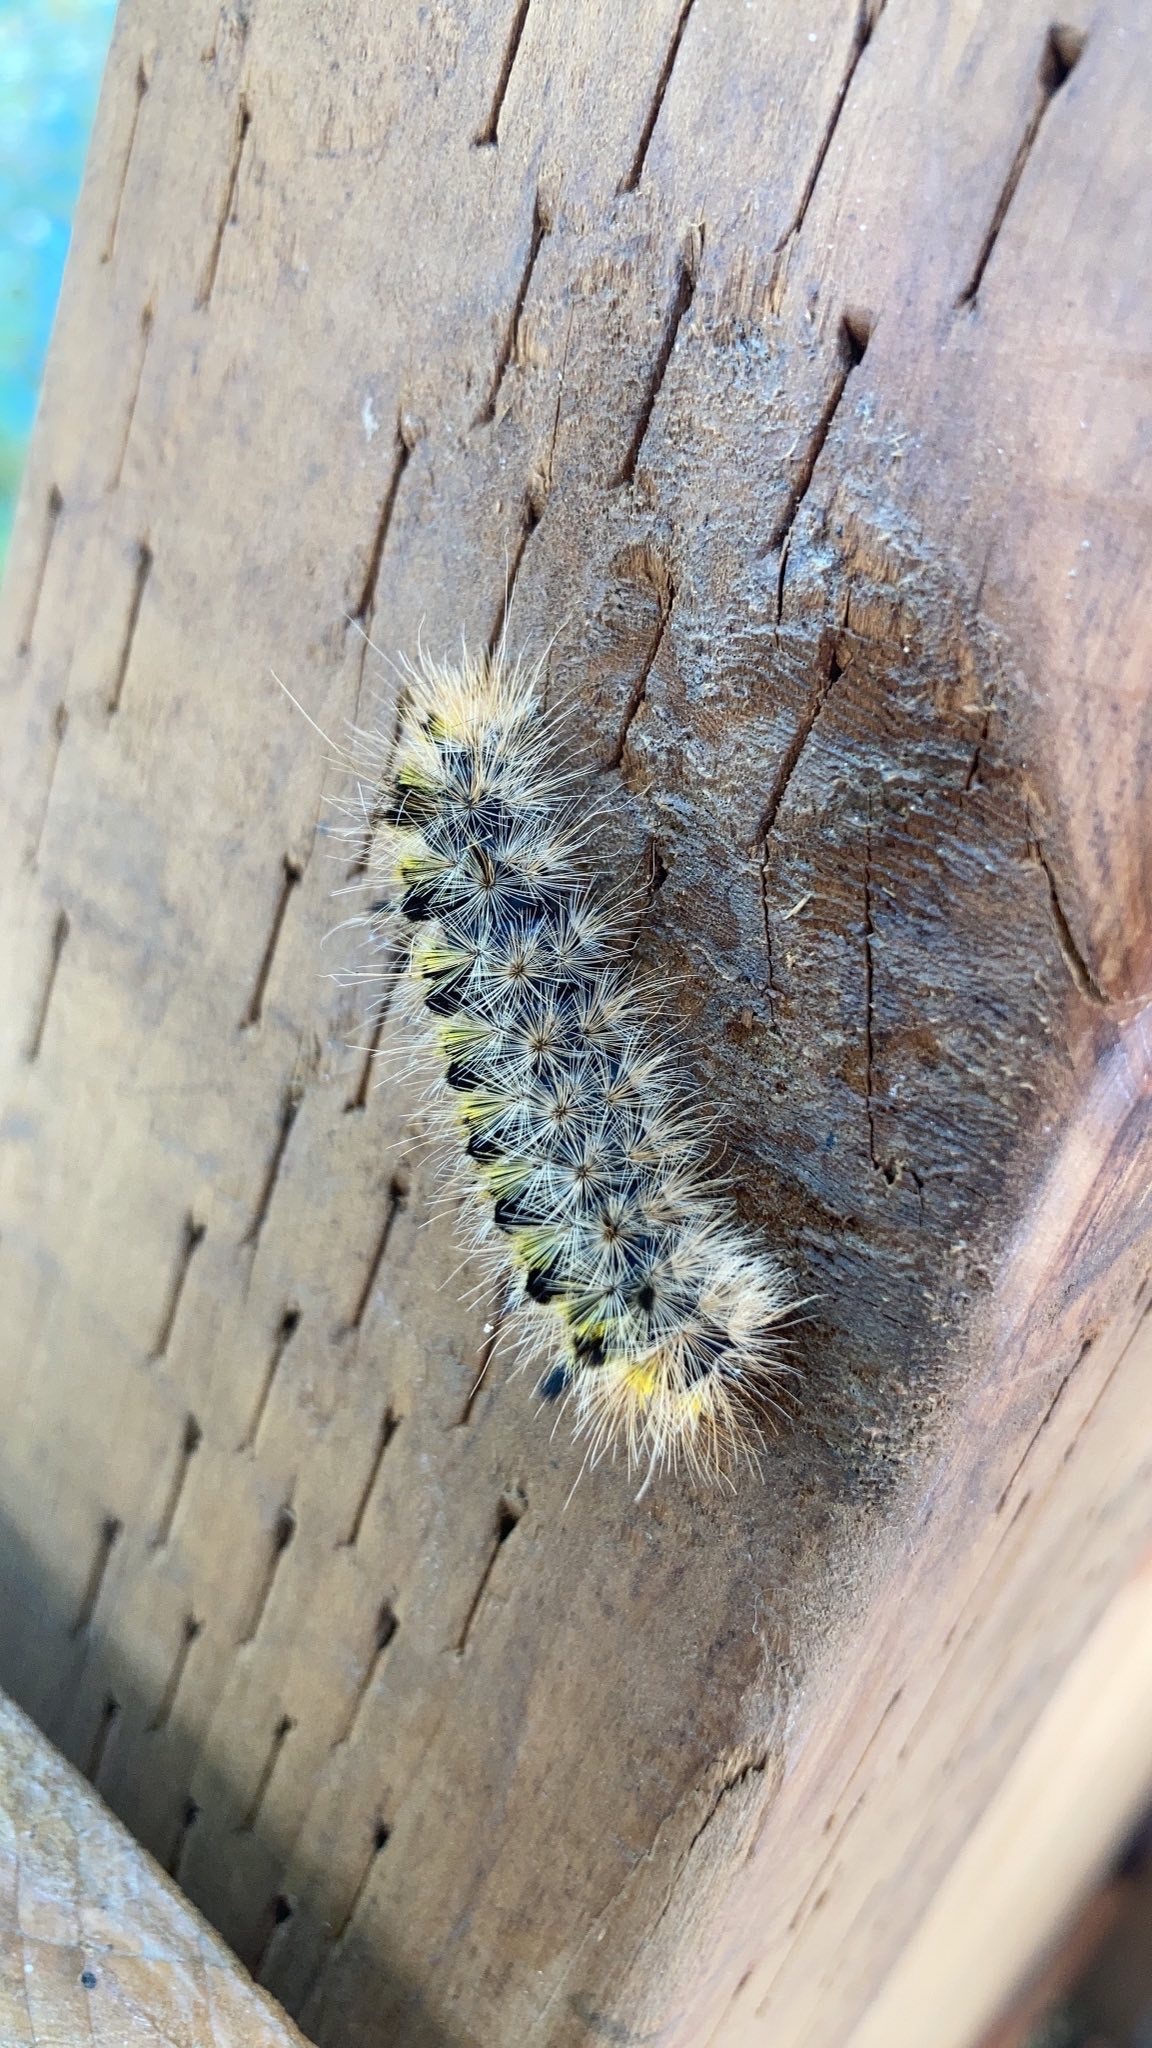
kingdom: Animalia
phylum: Arthropoda
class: Insecta
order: Lepidoptera
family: Erebidae
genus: Lophocampa
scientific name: Lophocampa argentata
